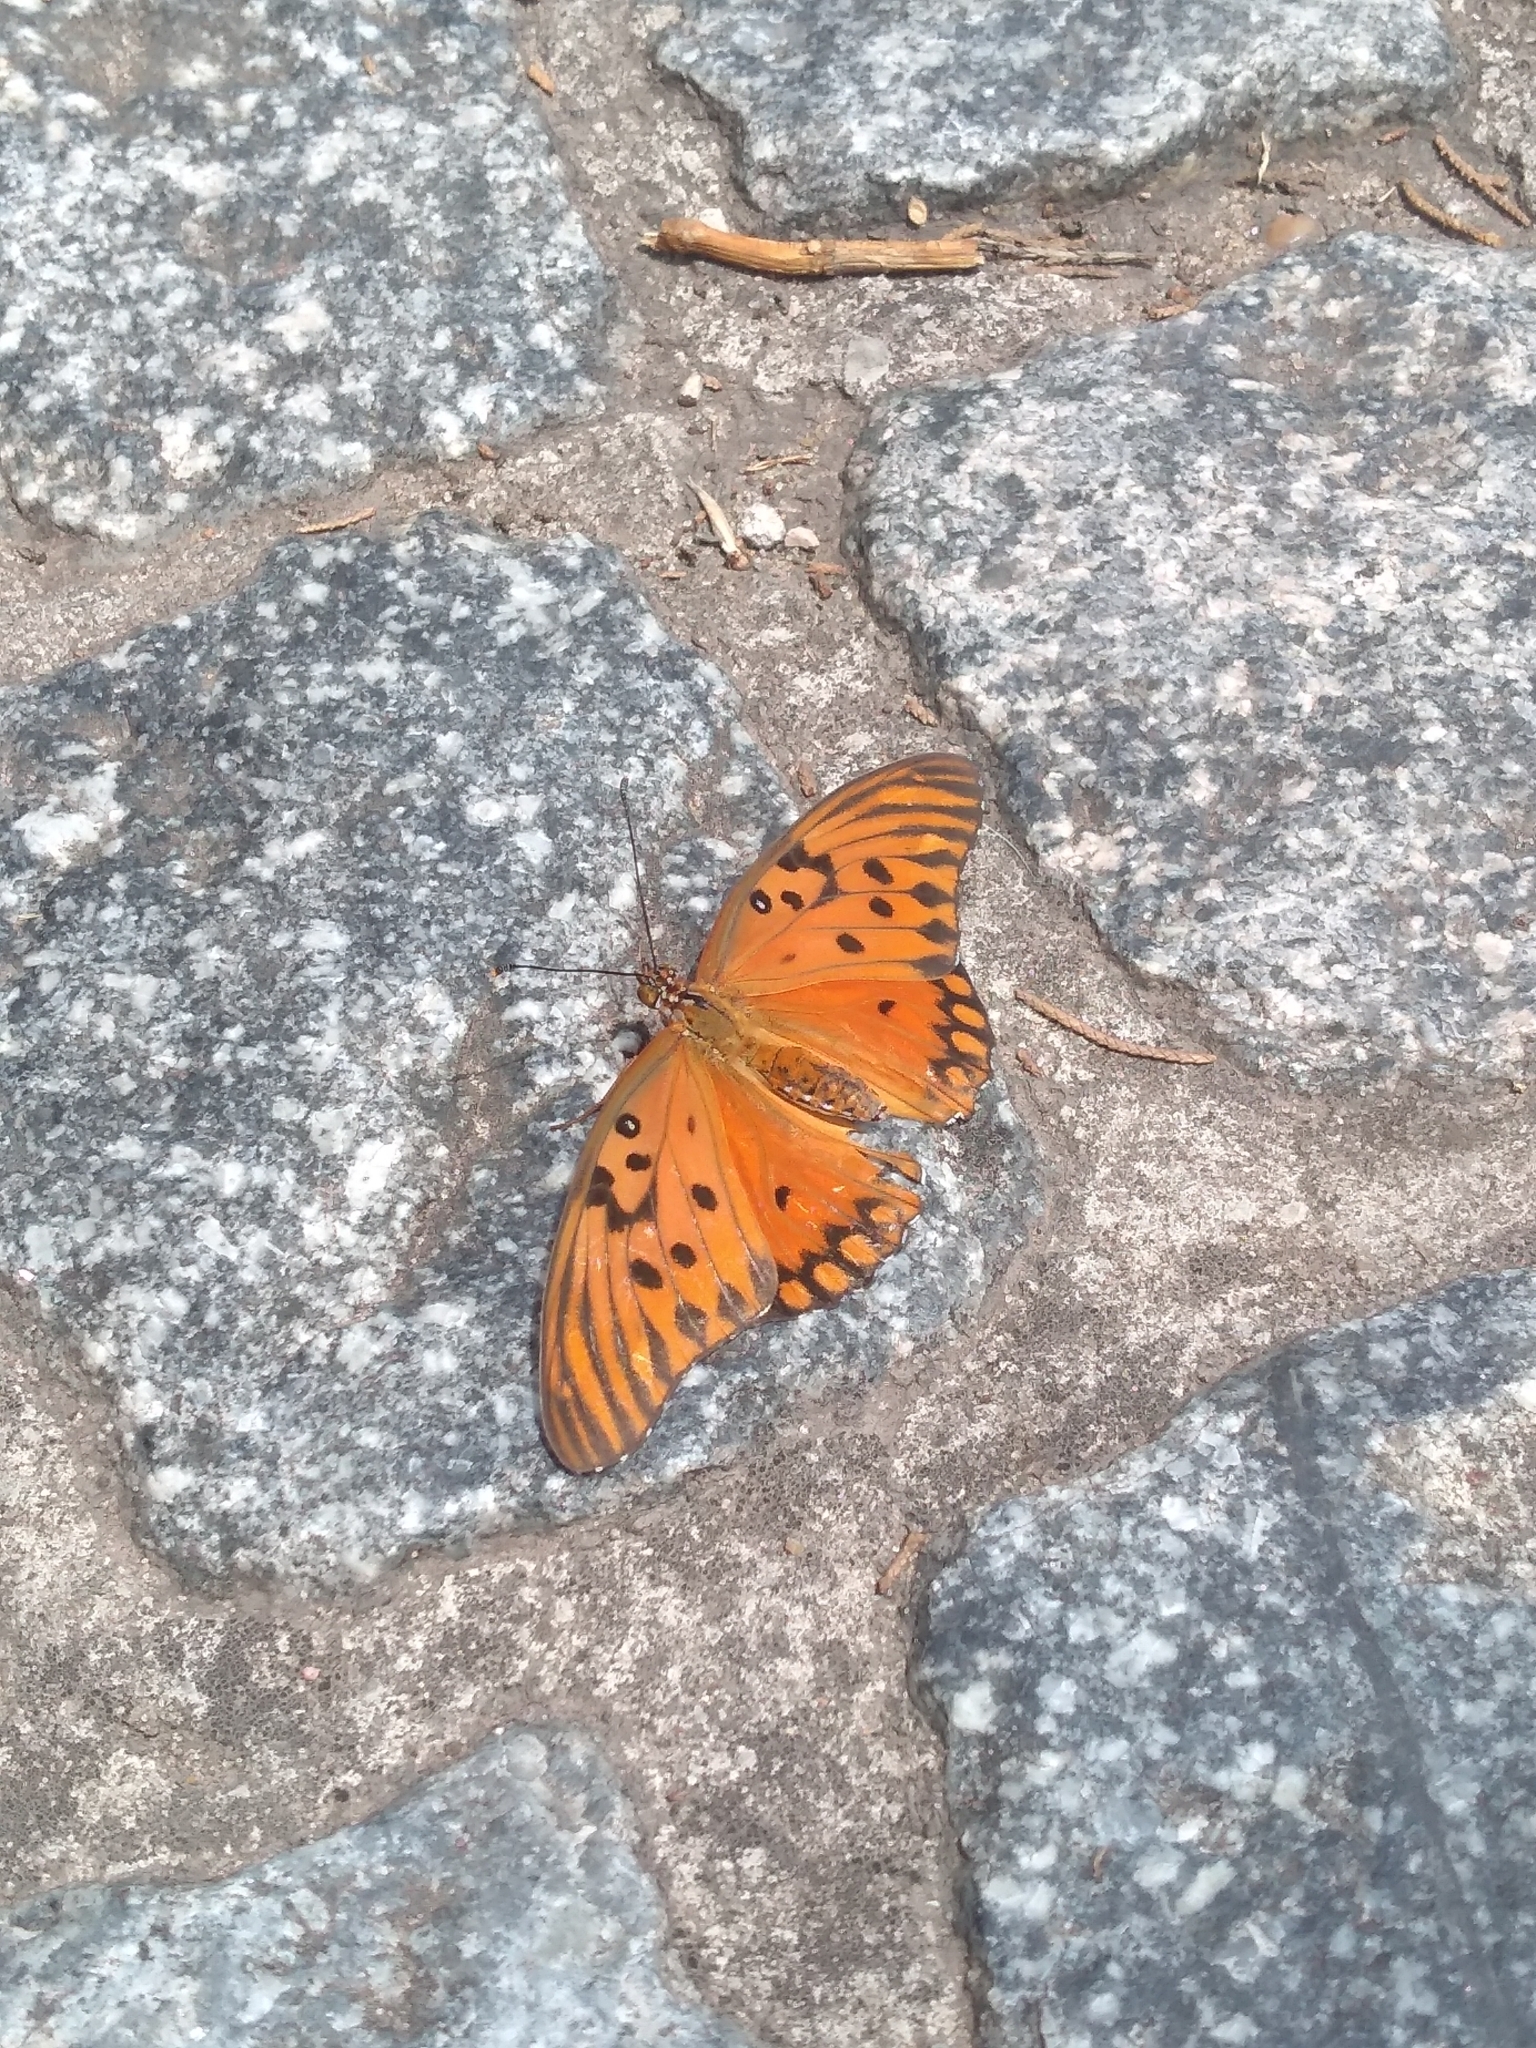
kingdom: Animalia
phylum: Arthropoda
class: Insecta
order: Lepidoptera
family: Nymphalidae
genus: Dione
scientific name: Dione vanillae
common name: Gulf fritillary
